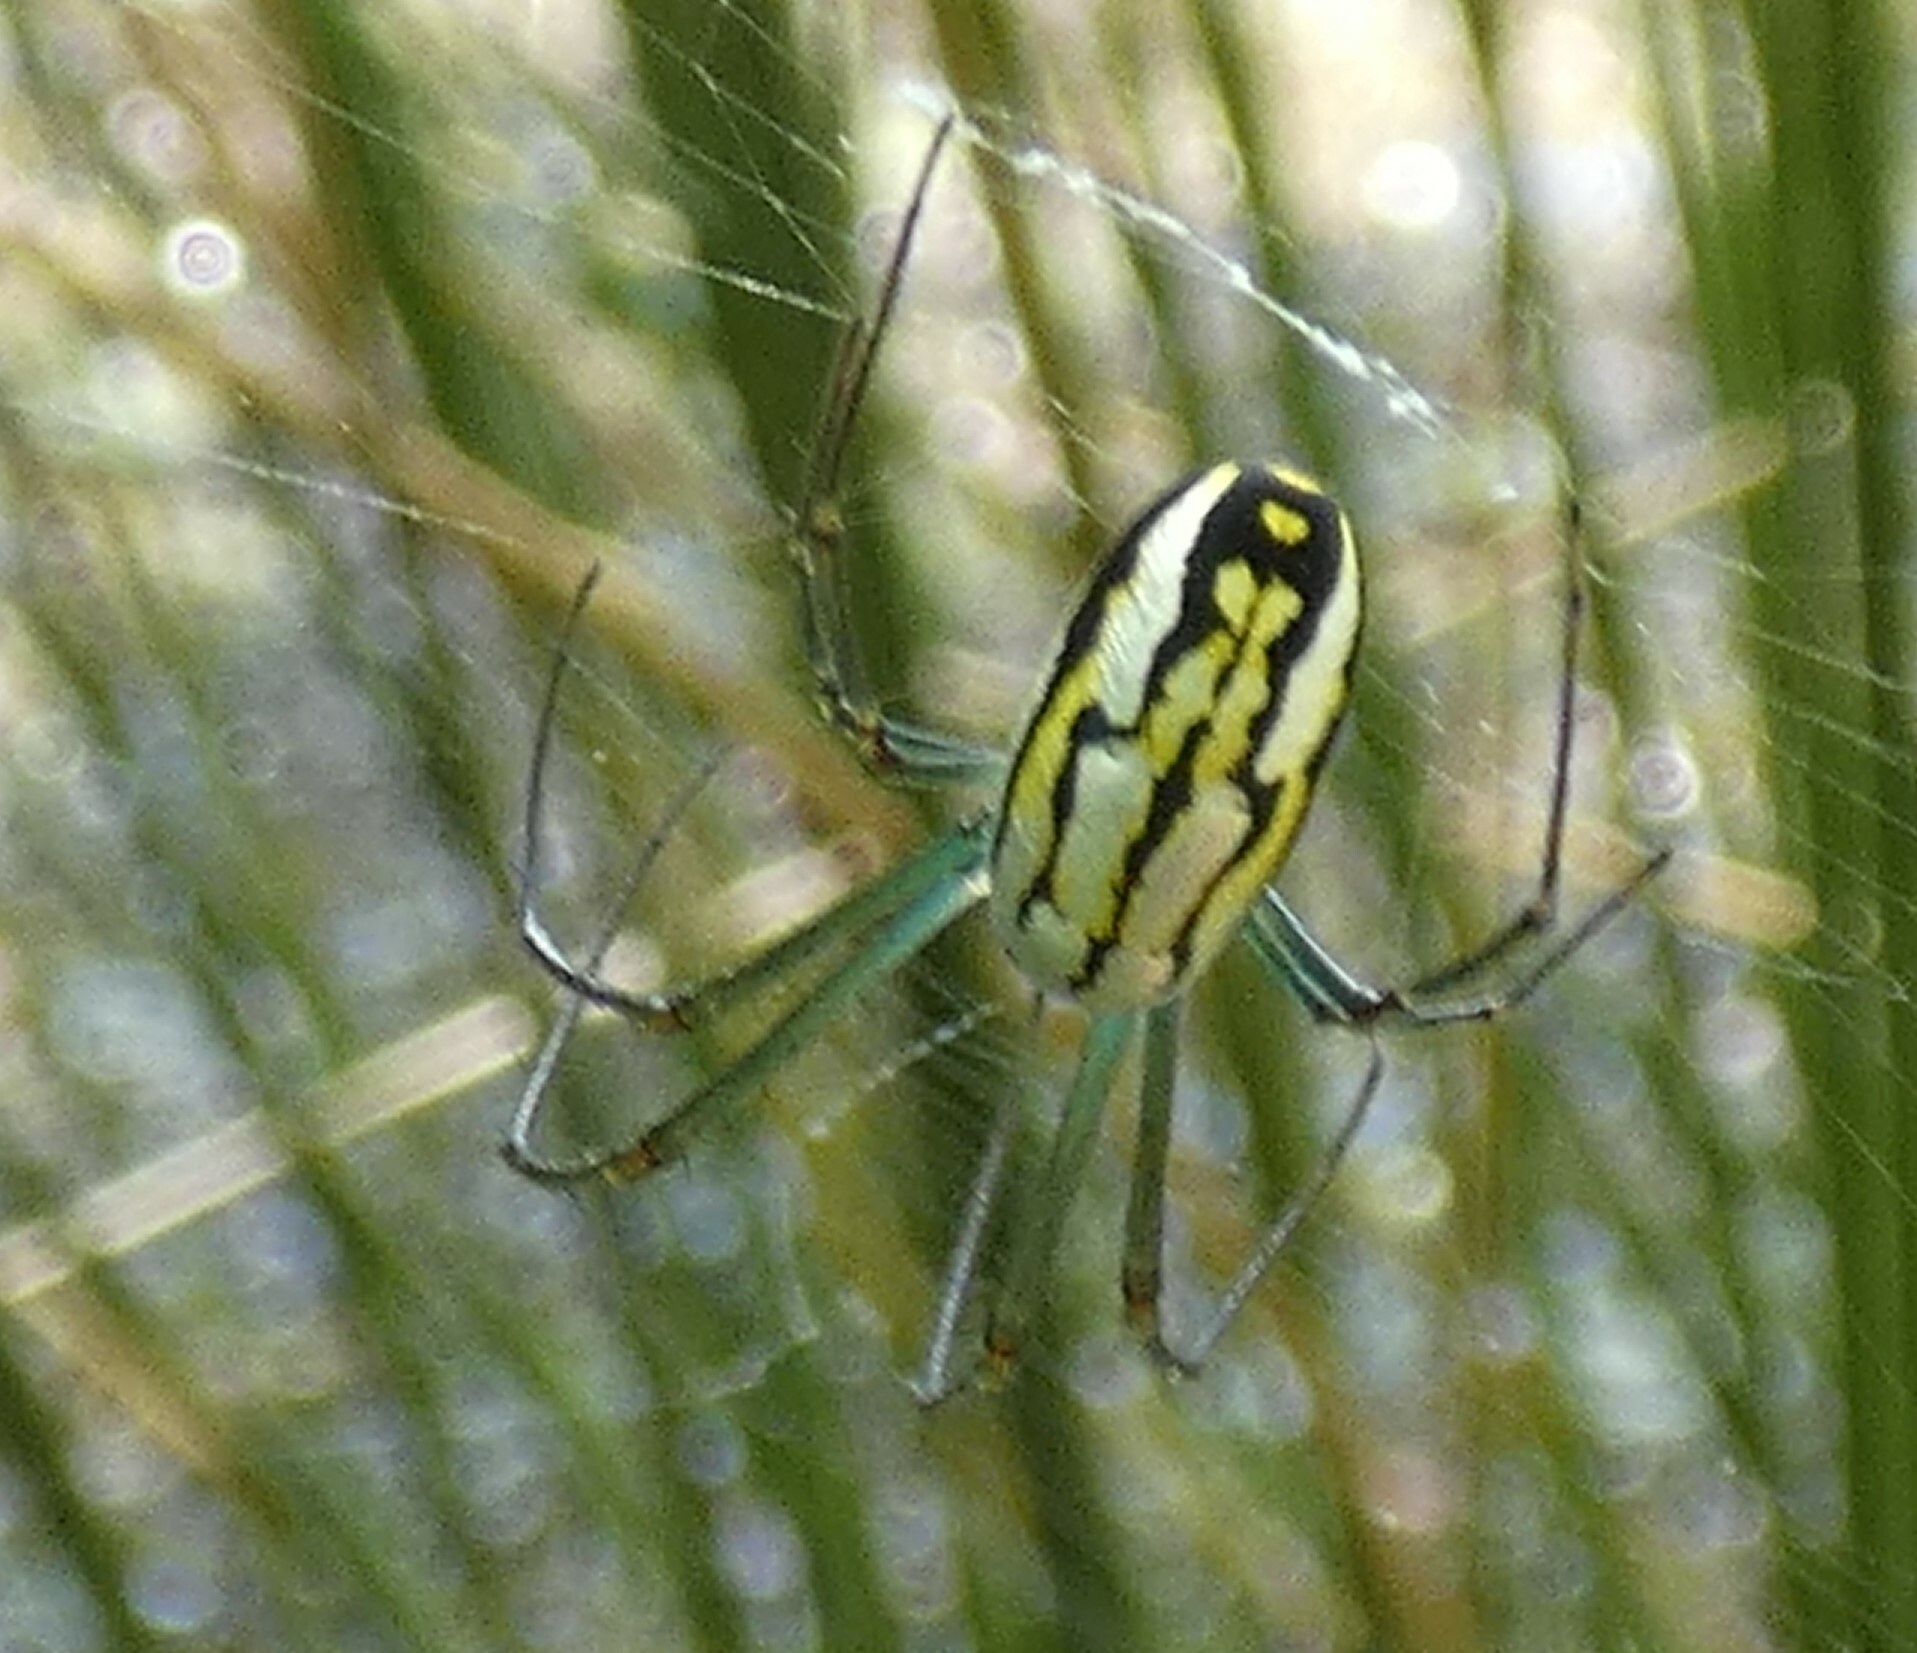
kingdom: Animalia
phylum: Arthropoda
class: Arachnida
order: Araneae
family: Tetragnathidae
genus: Leucauge
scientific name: Leucauge argyra
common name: Longjawed orb weavers
